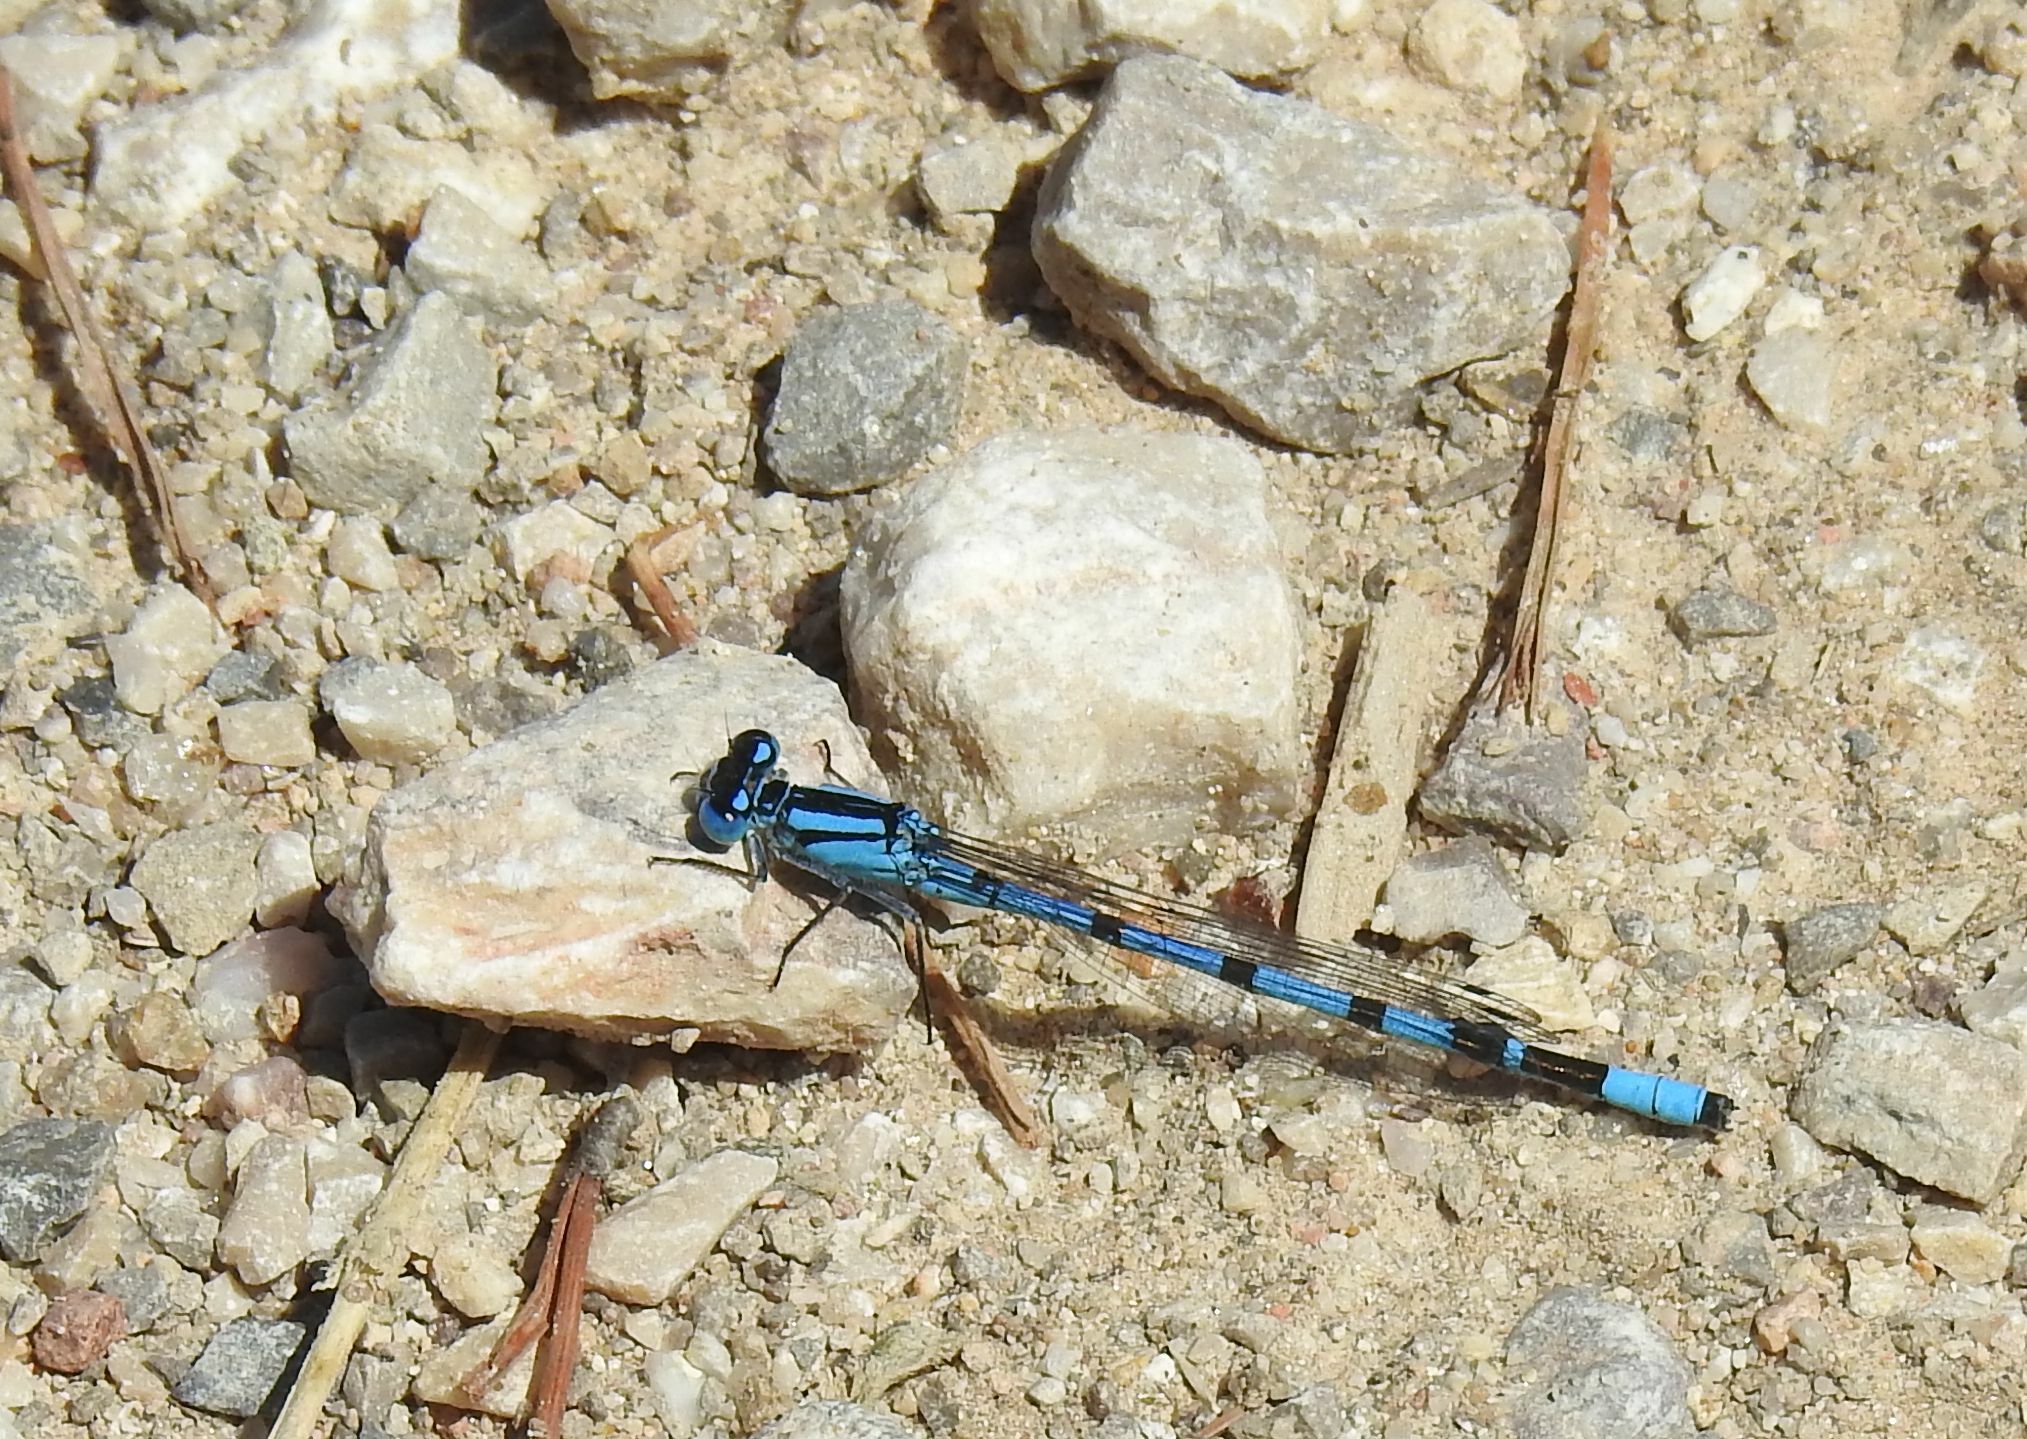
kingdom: Animalia
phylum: Arthropoda
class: Insecta
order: Odonata
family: Coenagrionidae
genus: Enallagma
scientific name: Enallagma cyathigerum
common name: Common blue damselfly
